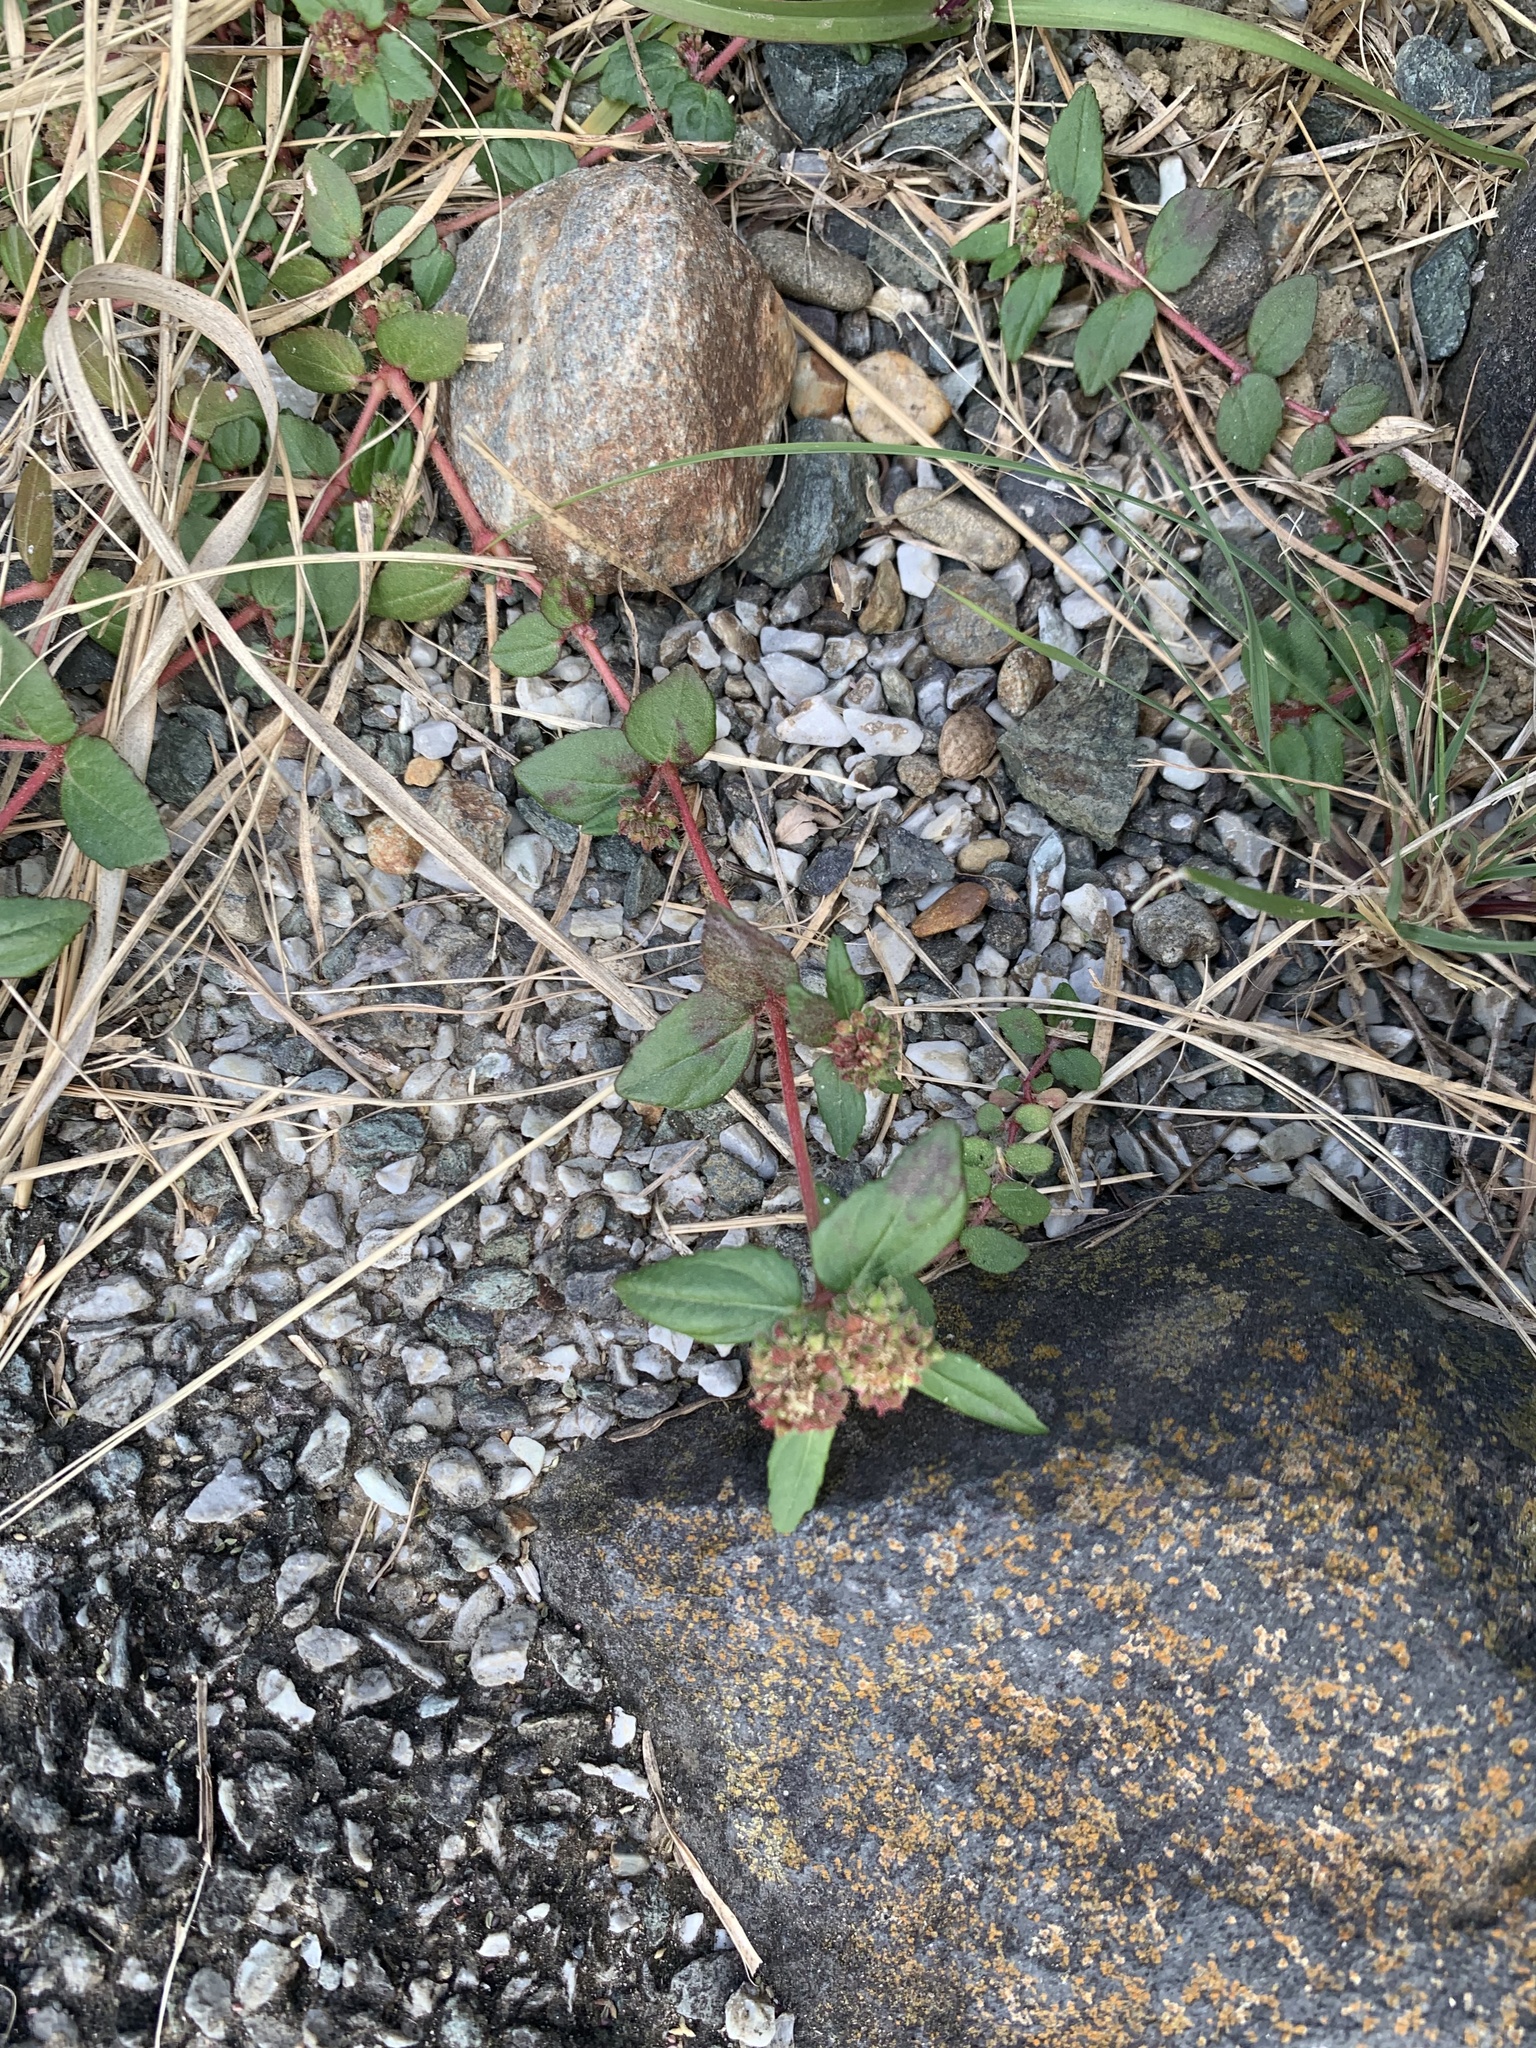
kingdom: Plantae
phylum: Tracheophyta
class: Magnoliopsida
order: Malpighiales
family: Euphorbiaceae
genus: Euphorbia
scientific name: Euphorbia ophthalmica
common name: Florida hammock sandmat
